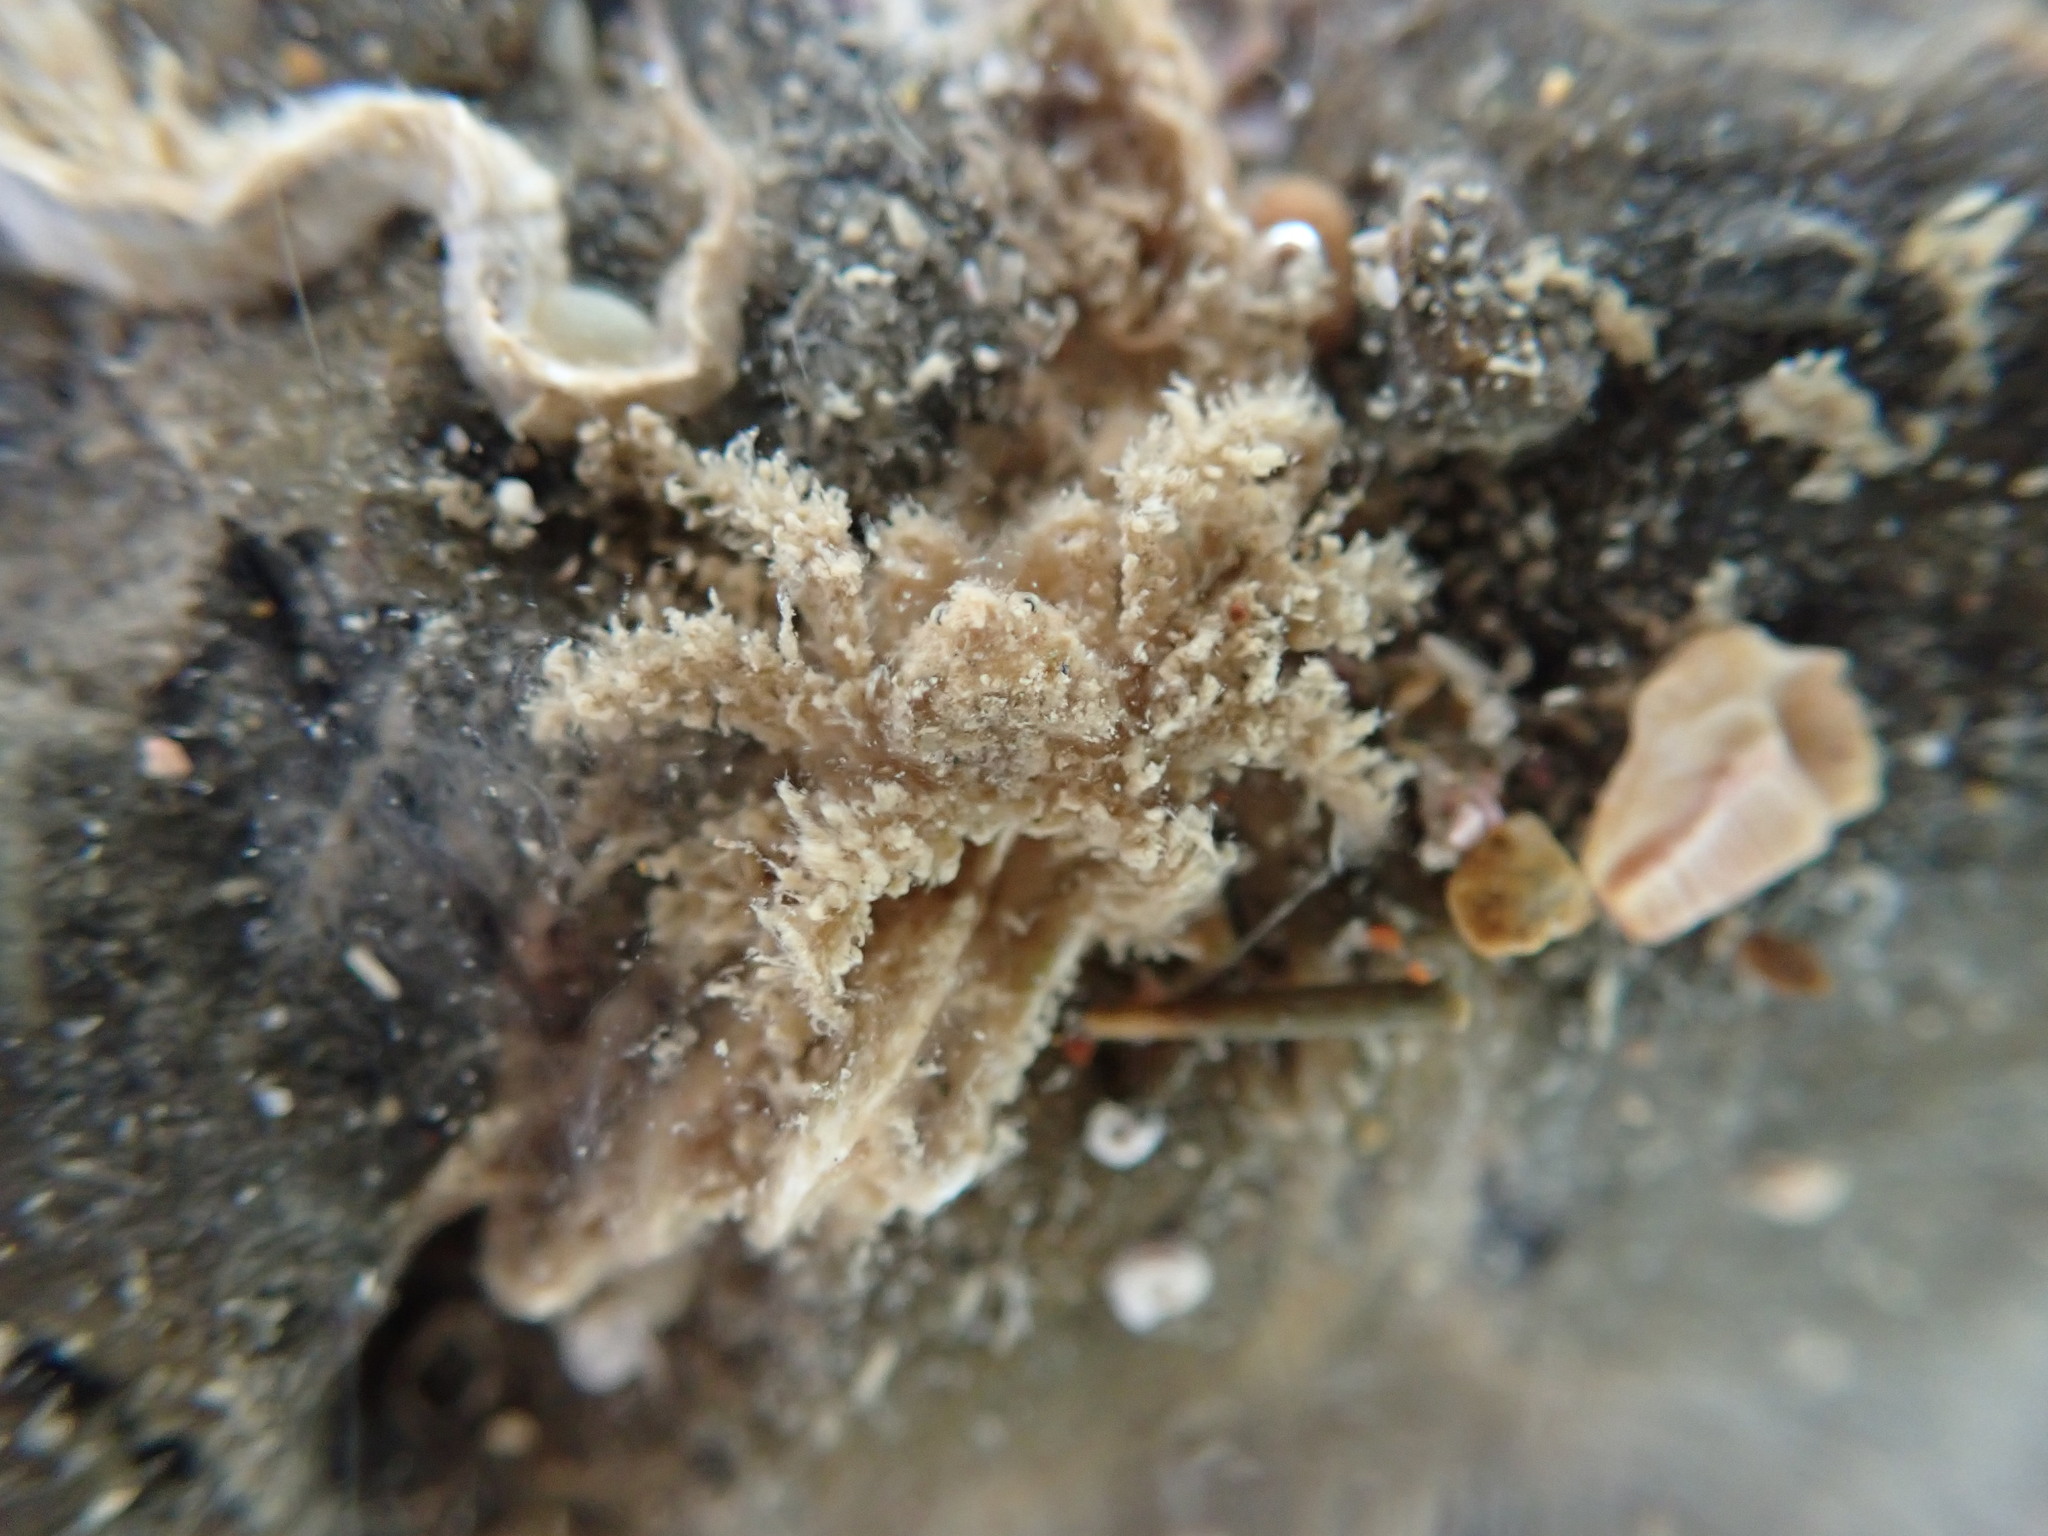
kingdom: Animalia
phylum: Arthropoda
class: Malacostraca
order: Decapoda
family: Hymenosomatidae
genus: Neohymenicus
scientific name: Neohymenicus pubescens
